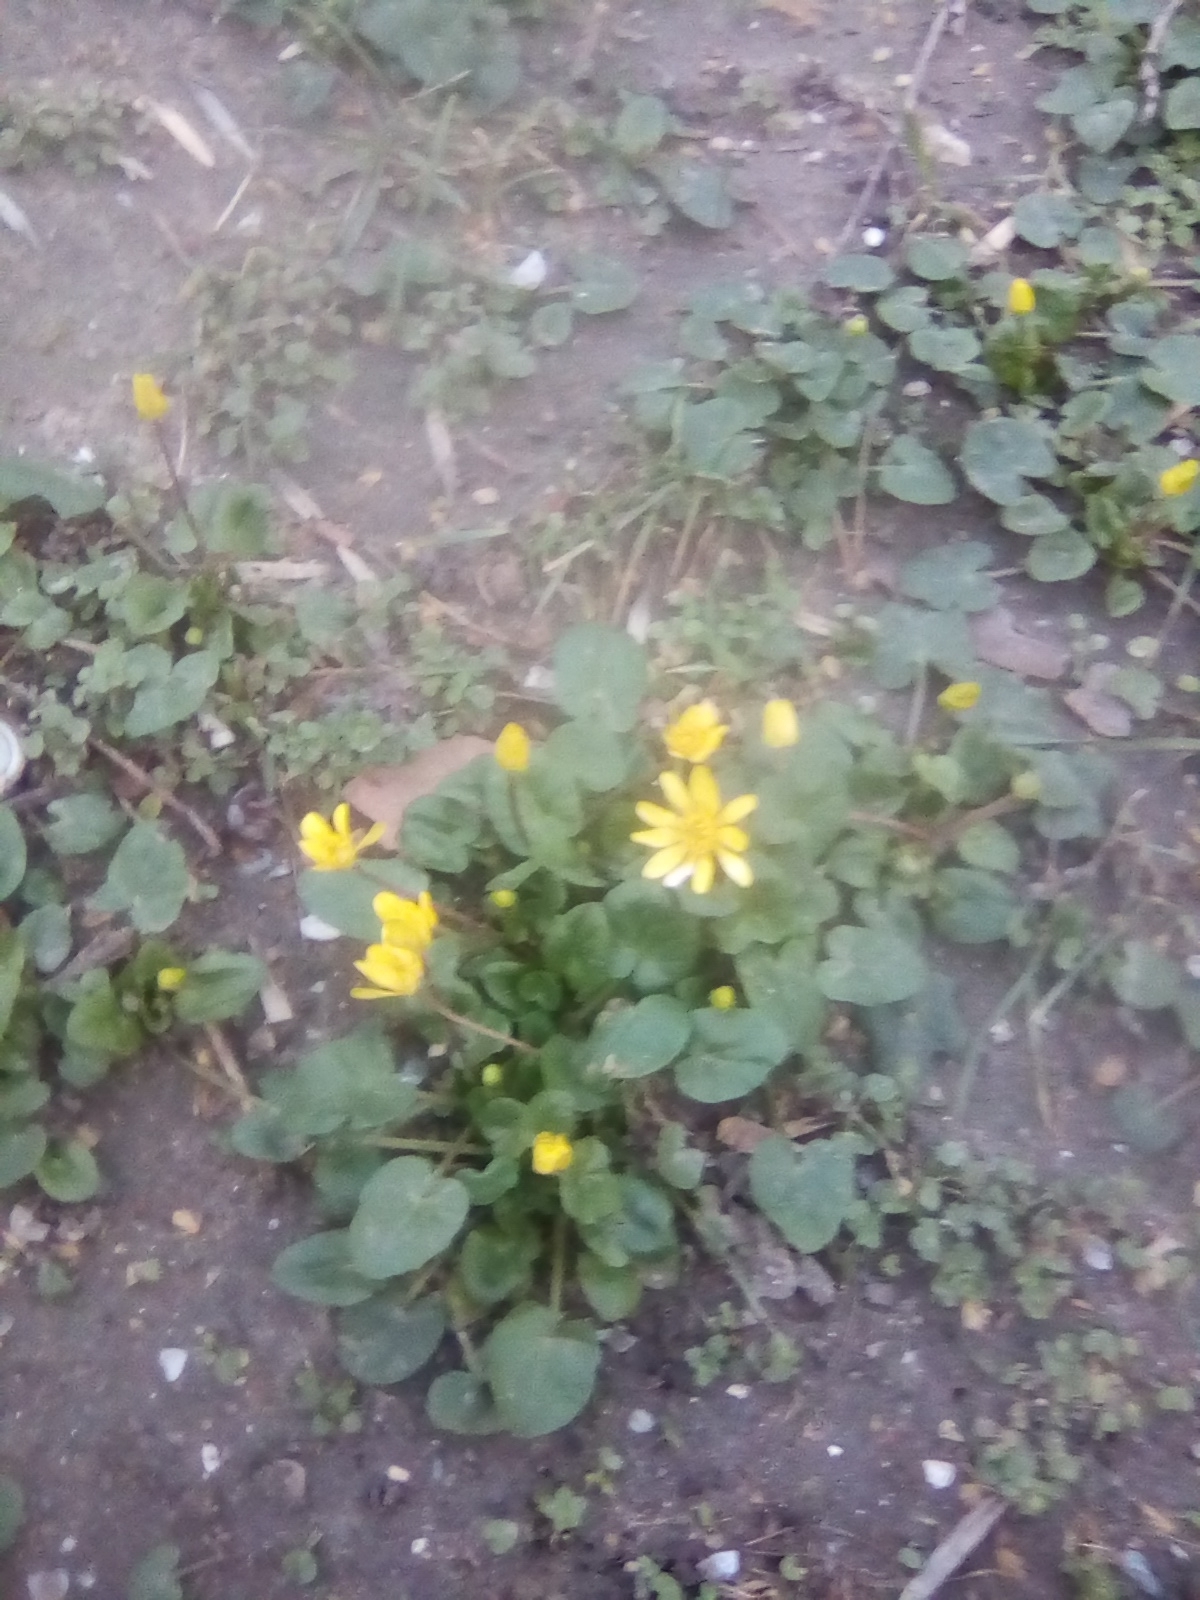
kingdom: Plantae
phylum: Tracheophyta
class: Magnoliopsida
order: Ranunculales
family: Ranunculaceae
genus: Ficaria
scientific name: Ficaria verna
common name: Lesser celandine
